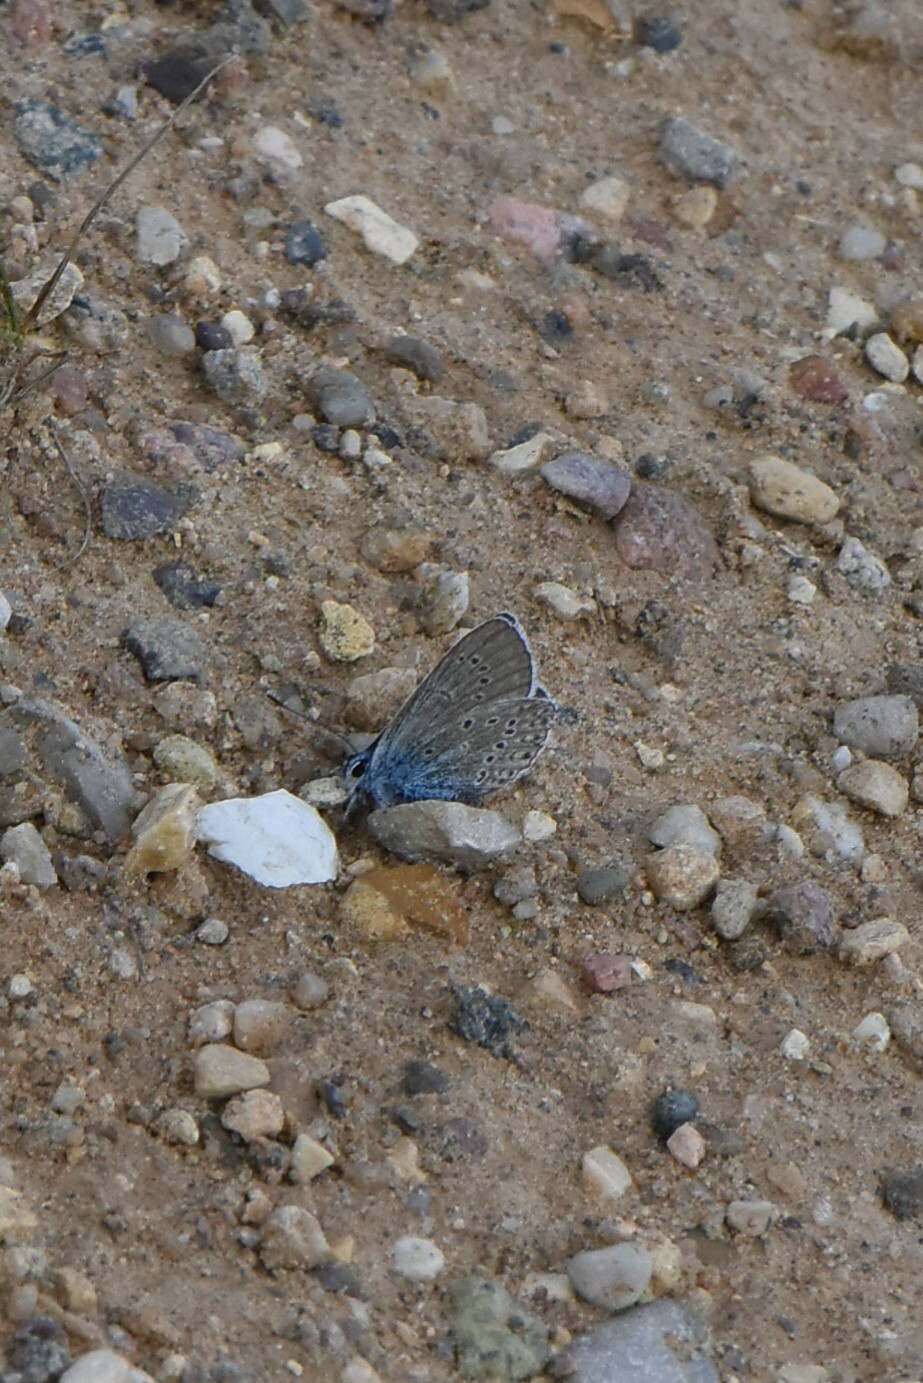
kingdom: Animalia
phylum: Arthropoda
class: Insecta
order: Lepidoptera
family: Lycaenidae
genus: Plebejus
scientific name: Plebejus amanda
